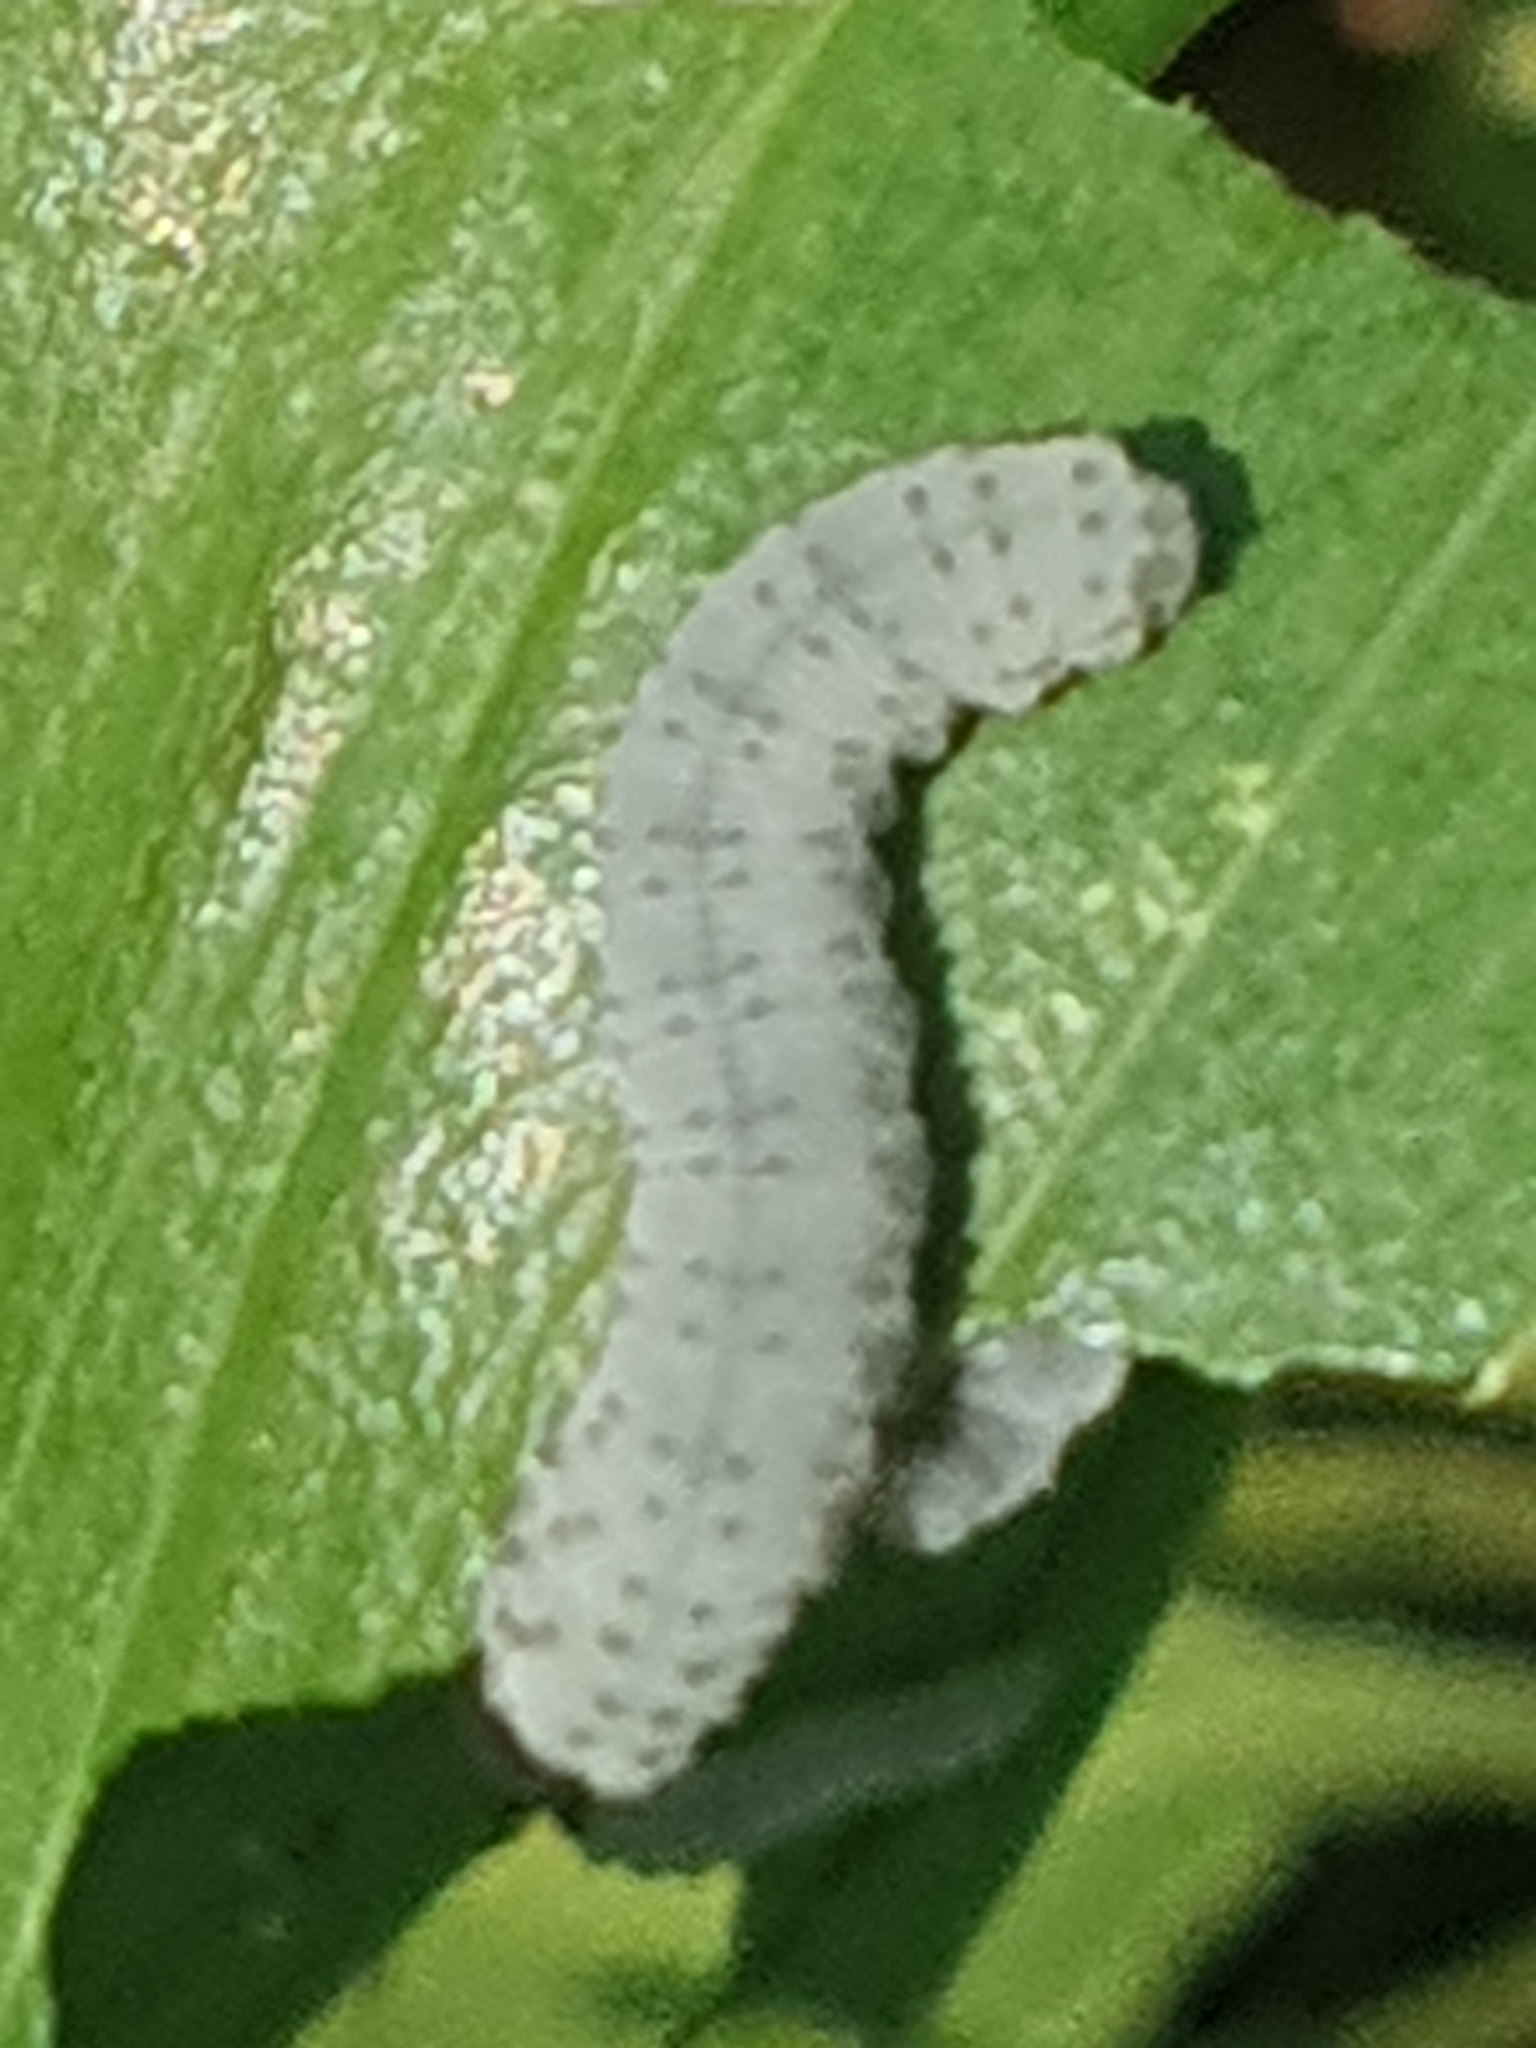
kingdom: Animalia
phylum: Arthropoda
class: Insecta
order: Hymenoptera
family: Tenthredinidae
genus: Phymatocera
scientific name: Phymatocera aterrima
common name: Solomon's-seal sawfly
